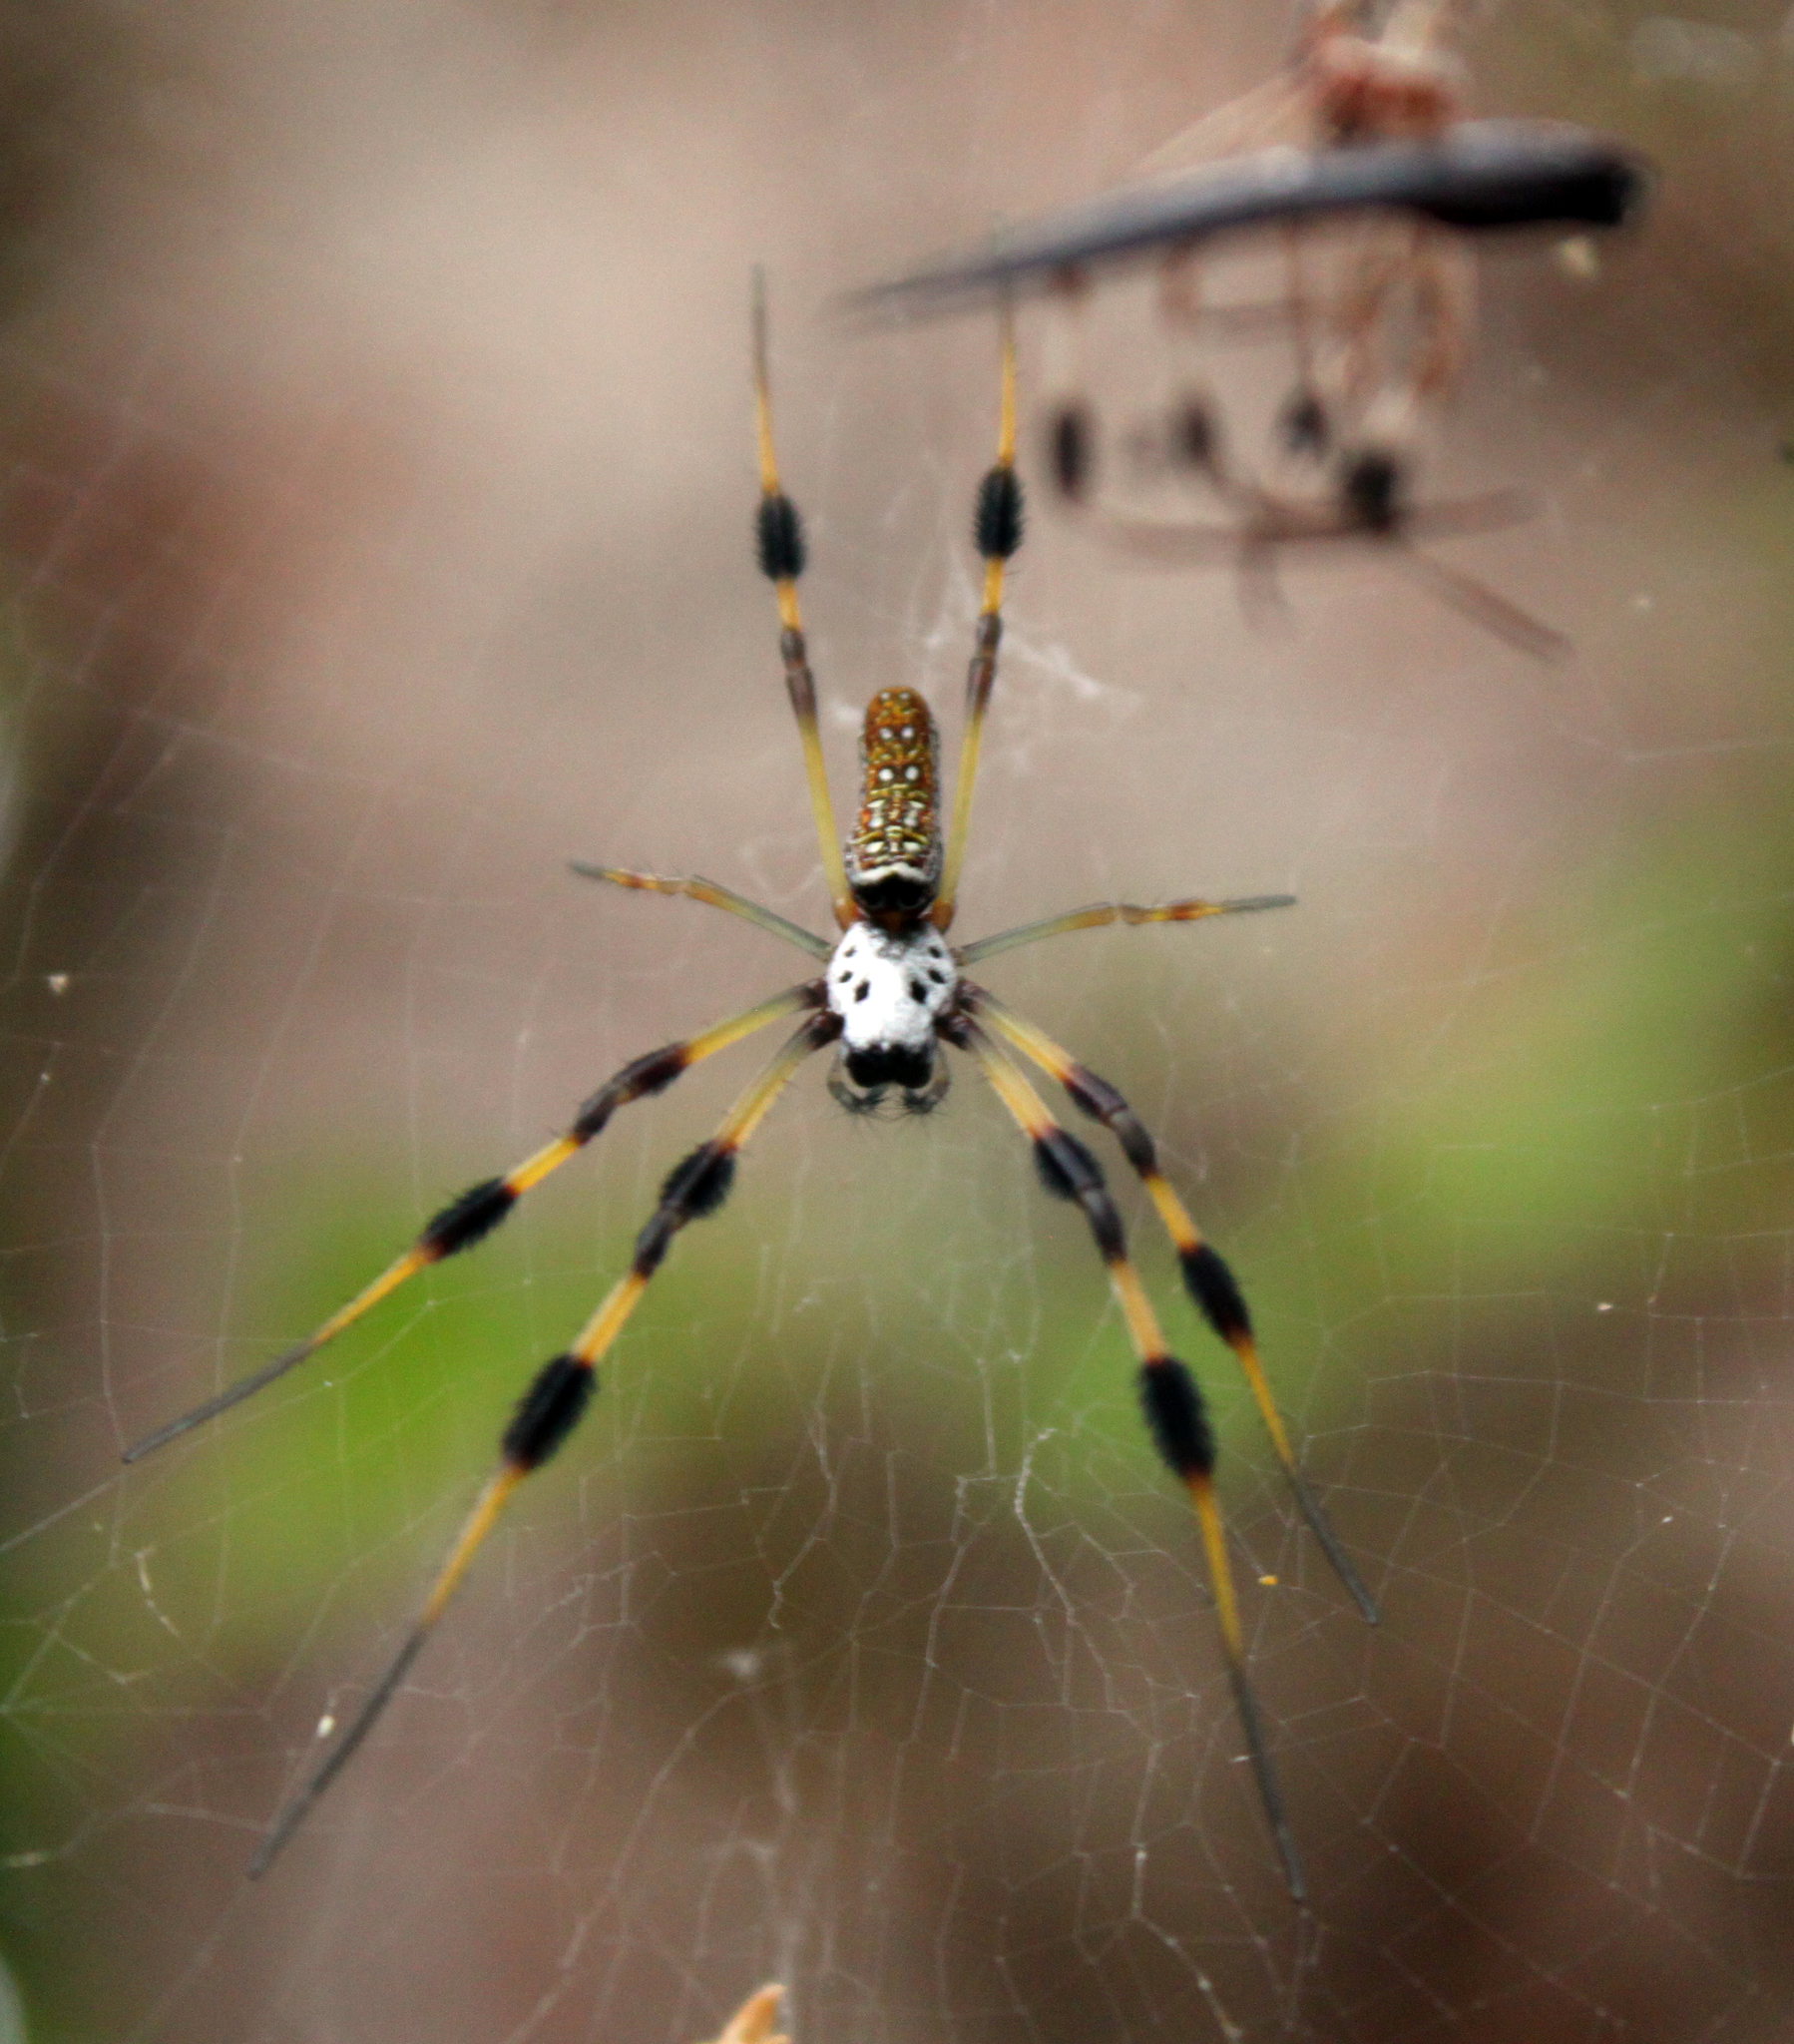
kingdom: Animalia
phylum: Arthropoda
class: Arachnida
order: Araneae
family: Araneidae
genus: Trichonephila
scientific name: Trichonephila clavipes
